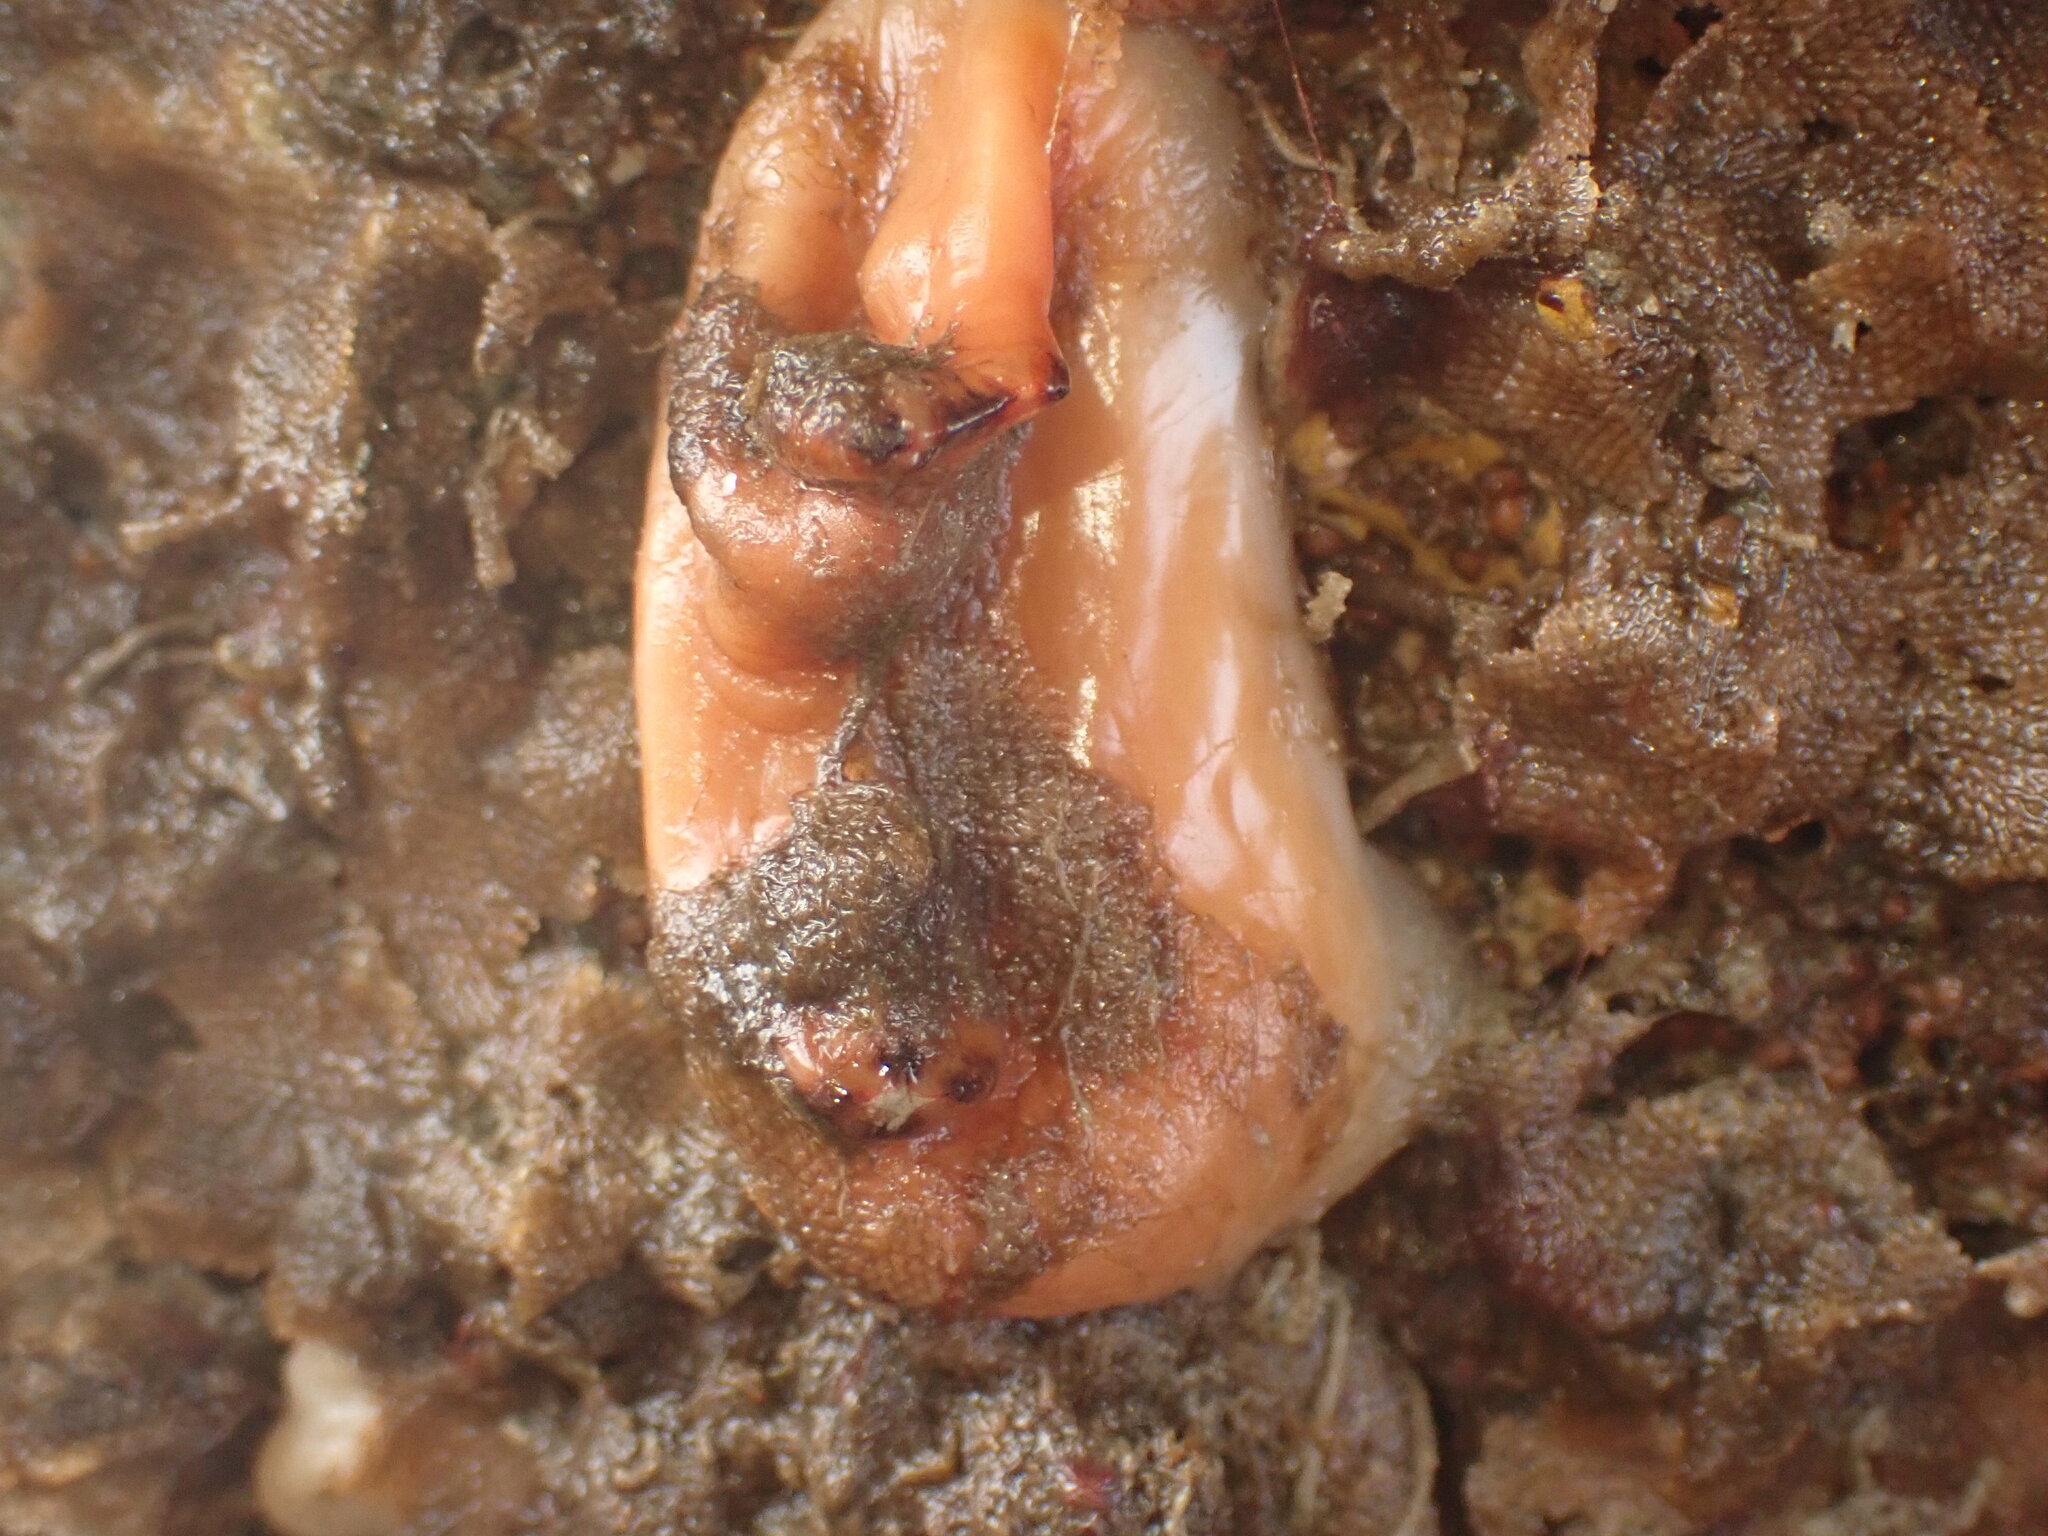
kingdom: Animalia
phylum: Chordata
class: Ascidiacea
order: Stolidobranchia
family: Styelidae
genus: Cnemidocarpa
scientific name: Cnemidocarpa bicornuta
